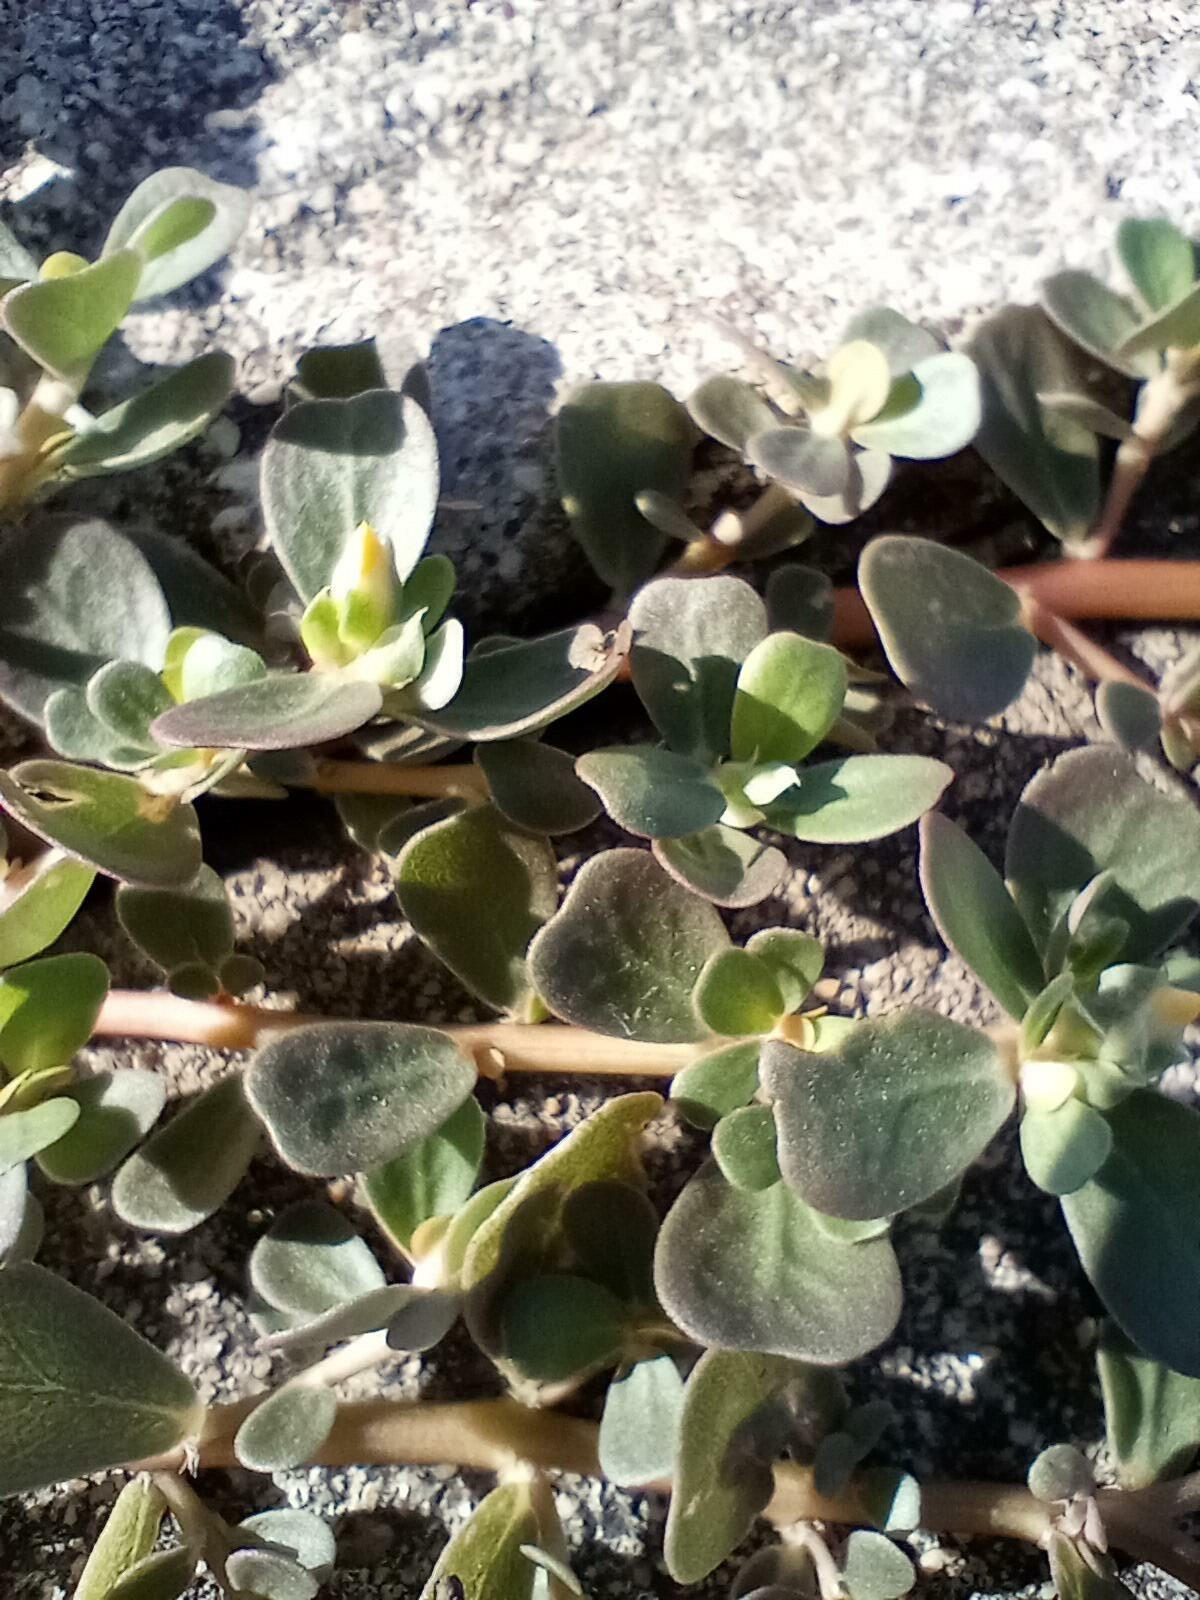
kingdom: Plantae
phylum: Tracheophyta
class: Magnoliopsida
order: Caryophyllales
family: Portulacaceae
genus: Portulaca
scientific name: Portulaca oleracea
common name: Common purslane
